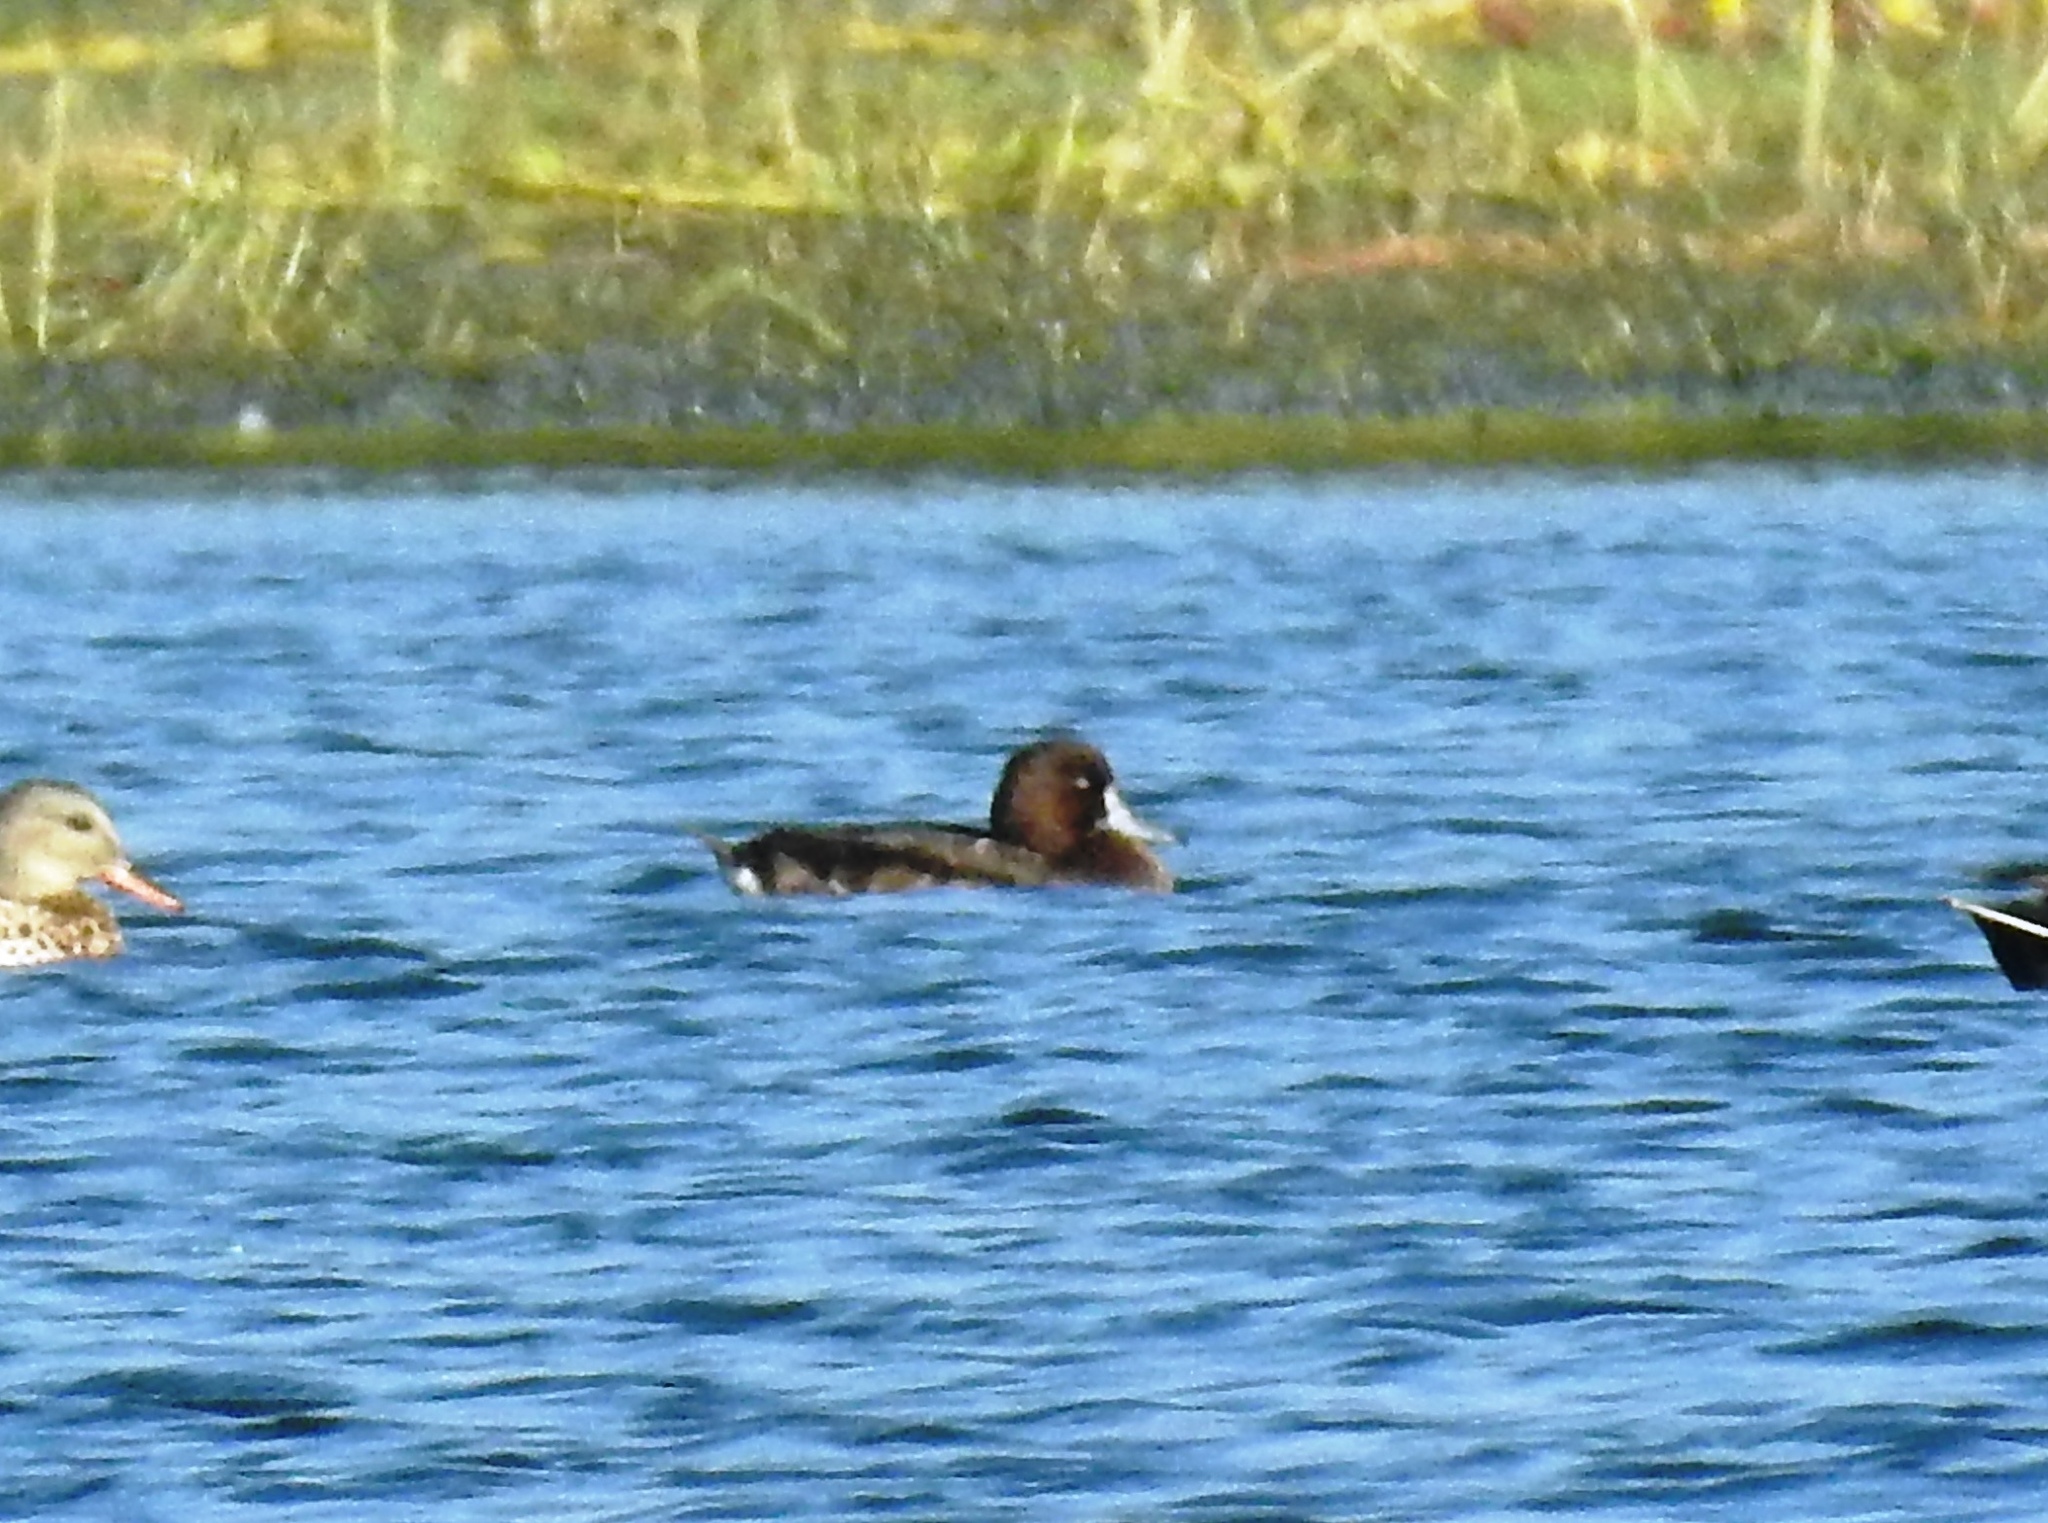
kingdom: Animalia
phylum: Chordata
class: Aves
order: Anseriformes
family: Anatidae
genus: Aythya
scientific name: Aythya nyroca
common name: Ferruginous duck
